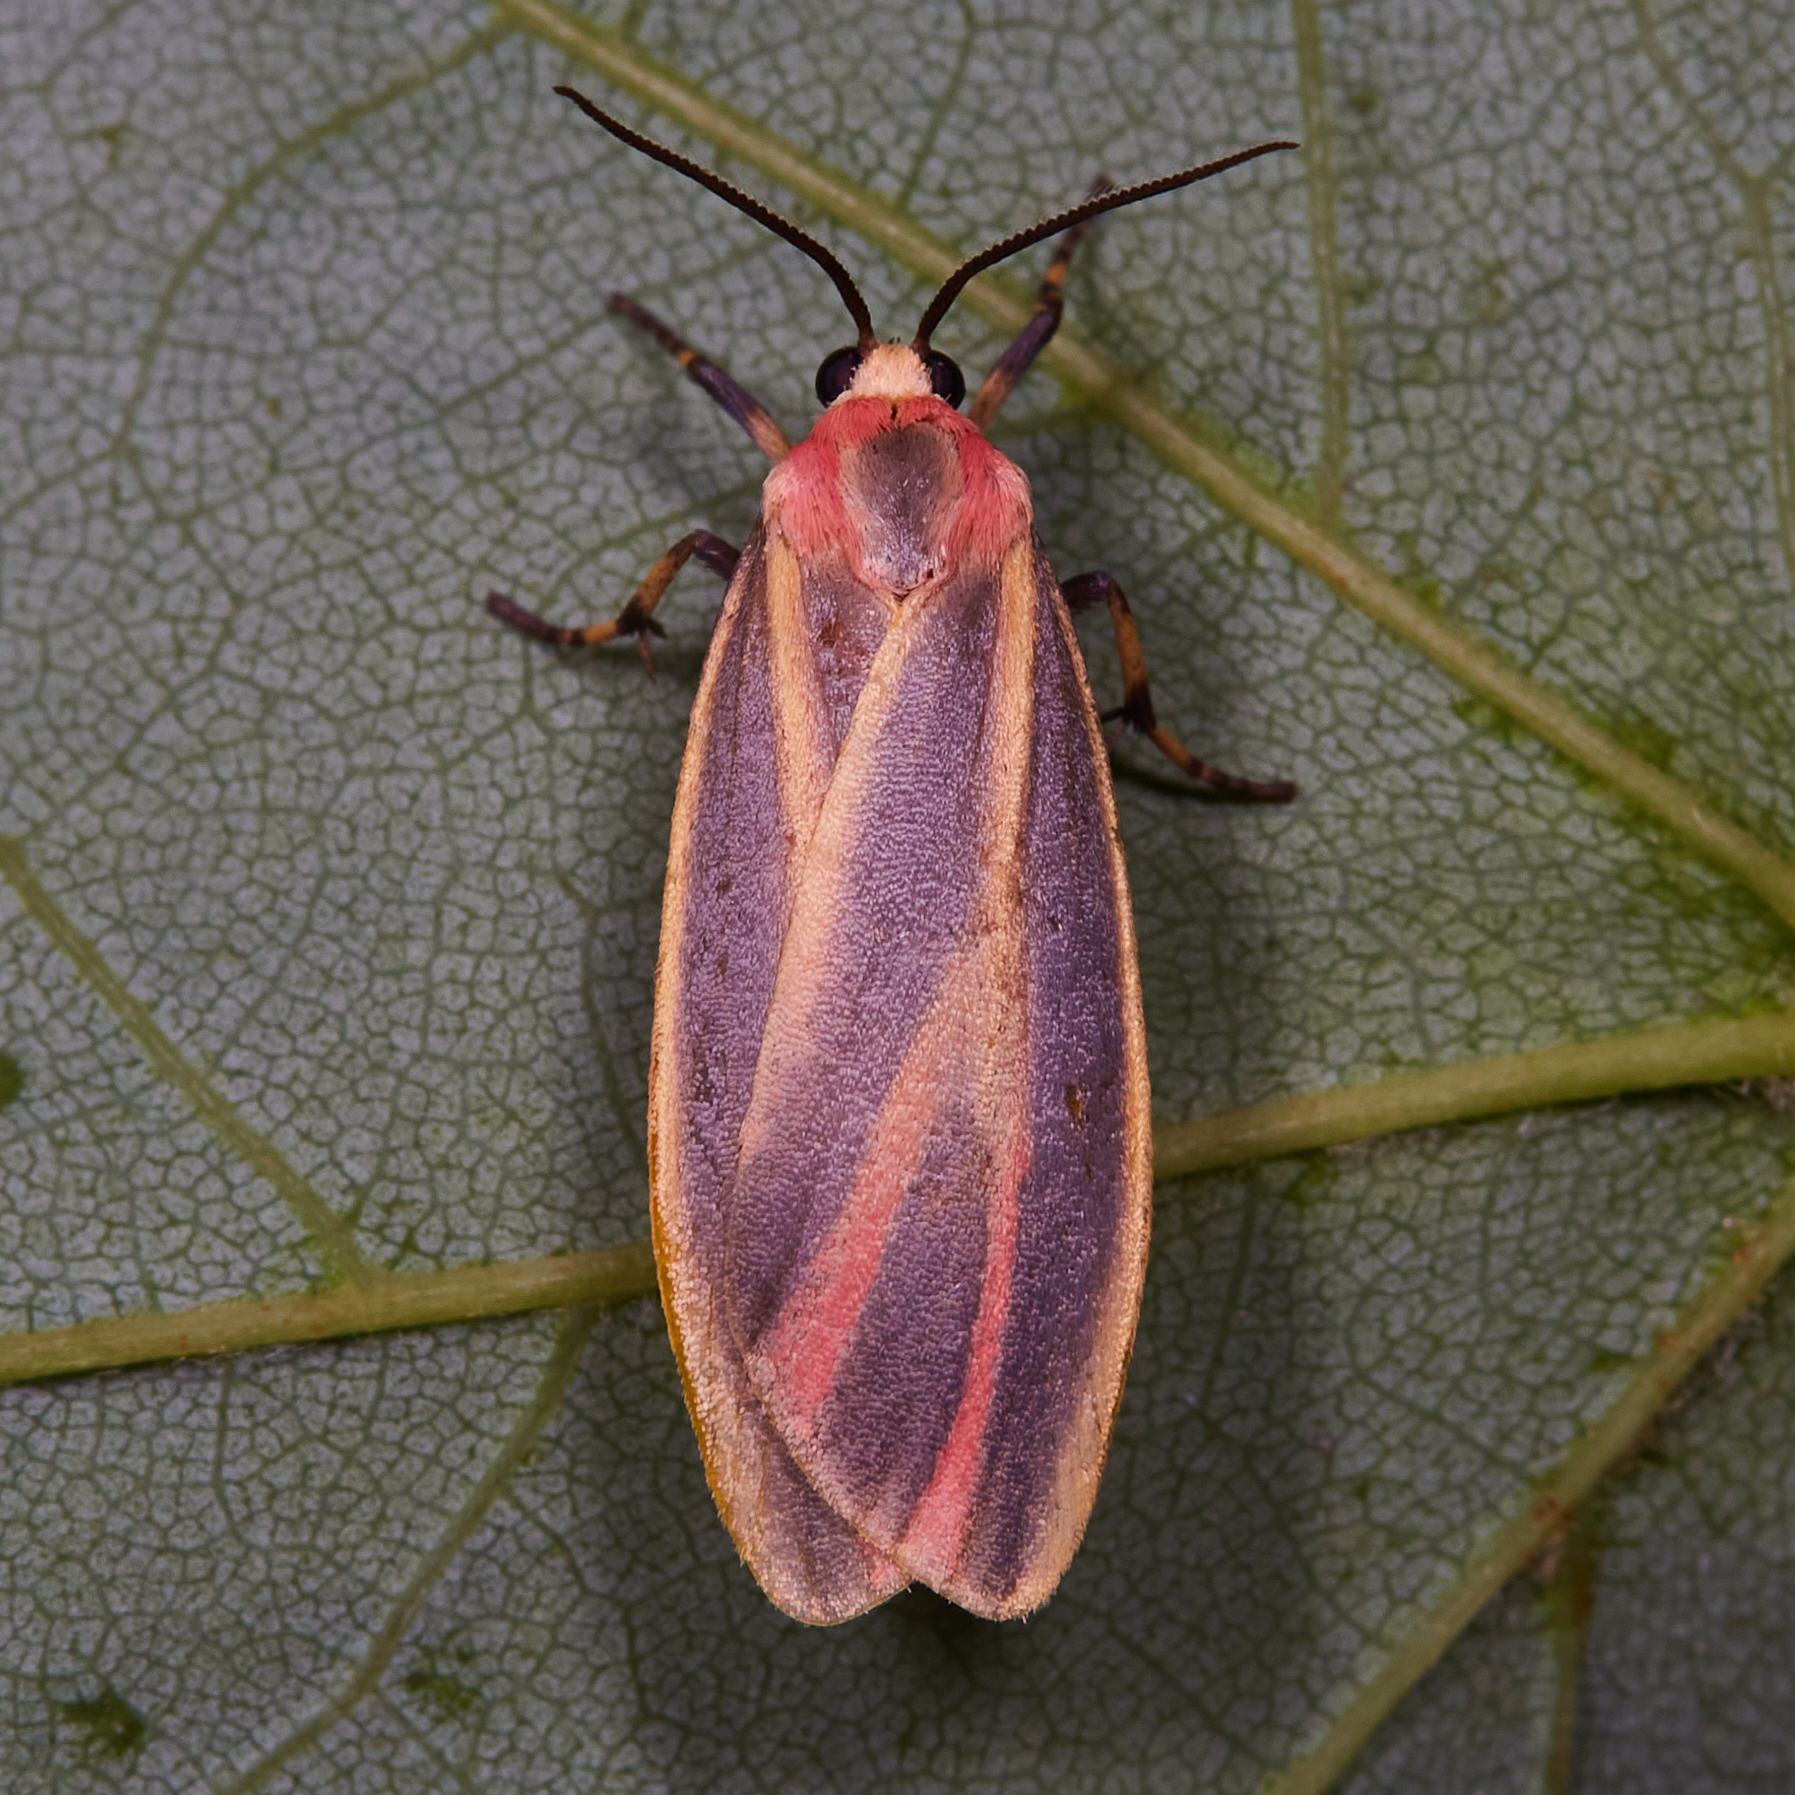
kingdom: Animalia
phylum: Arthropoda
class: Insecta
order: Lepidoptera
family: Erebidae
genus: Hypoprepia
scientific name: Hypoprepia fucosa
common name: Painted lichen moth
